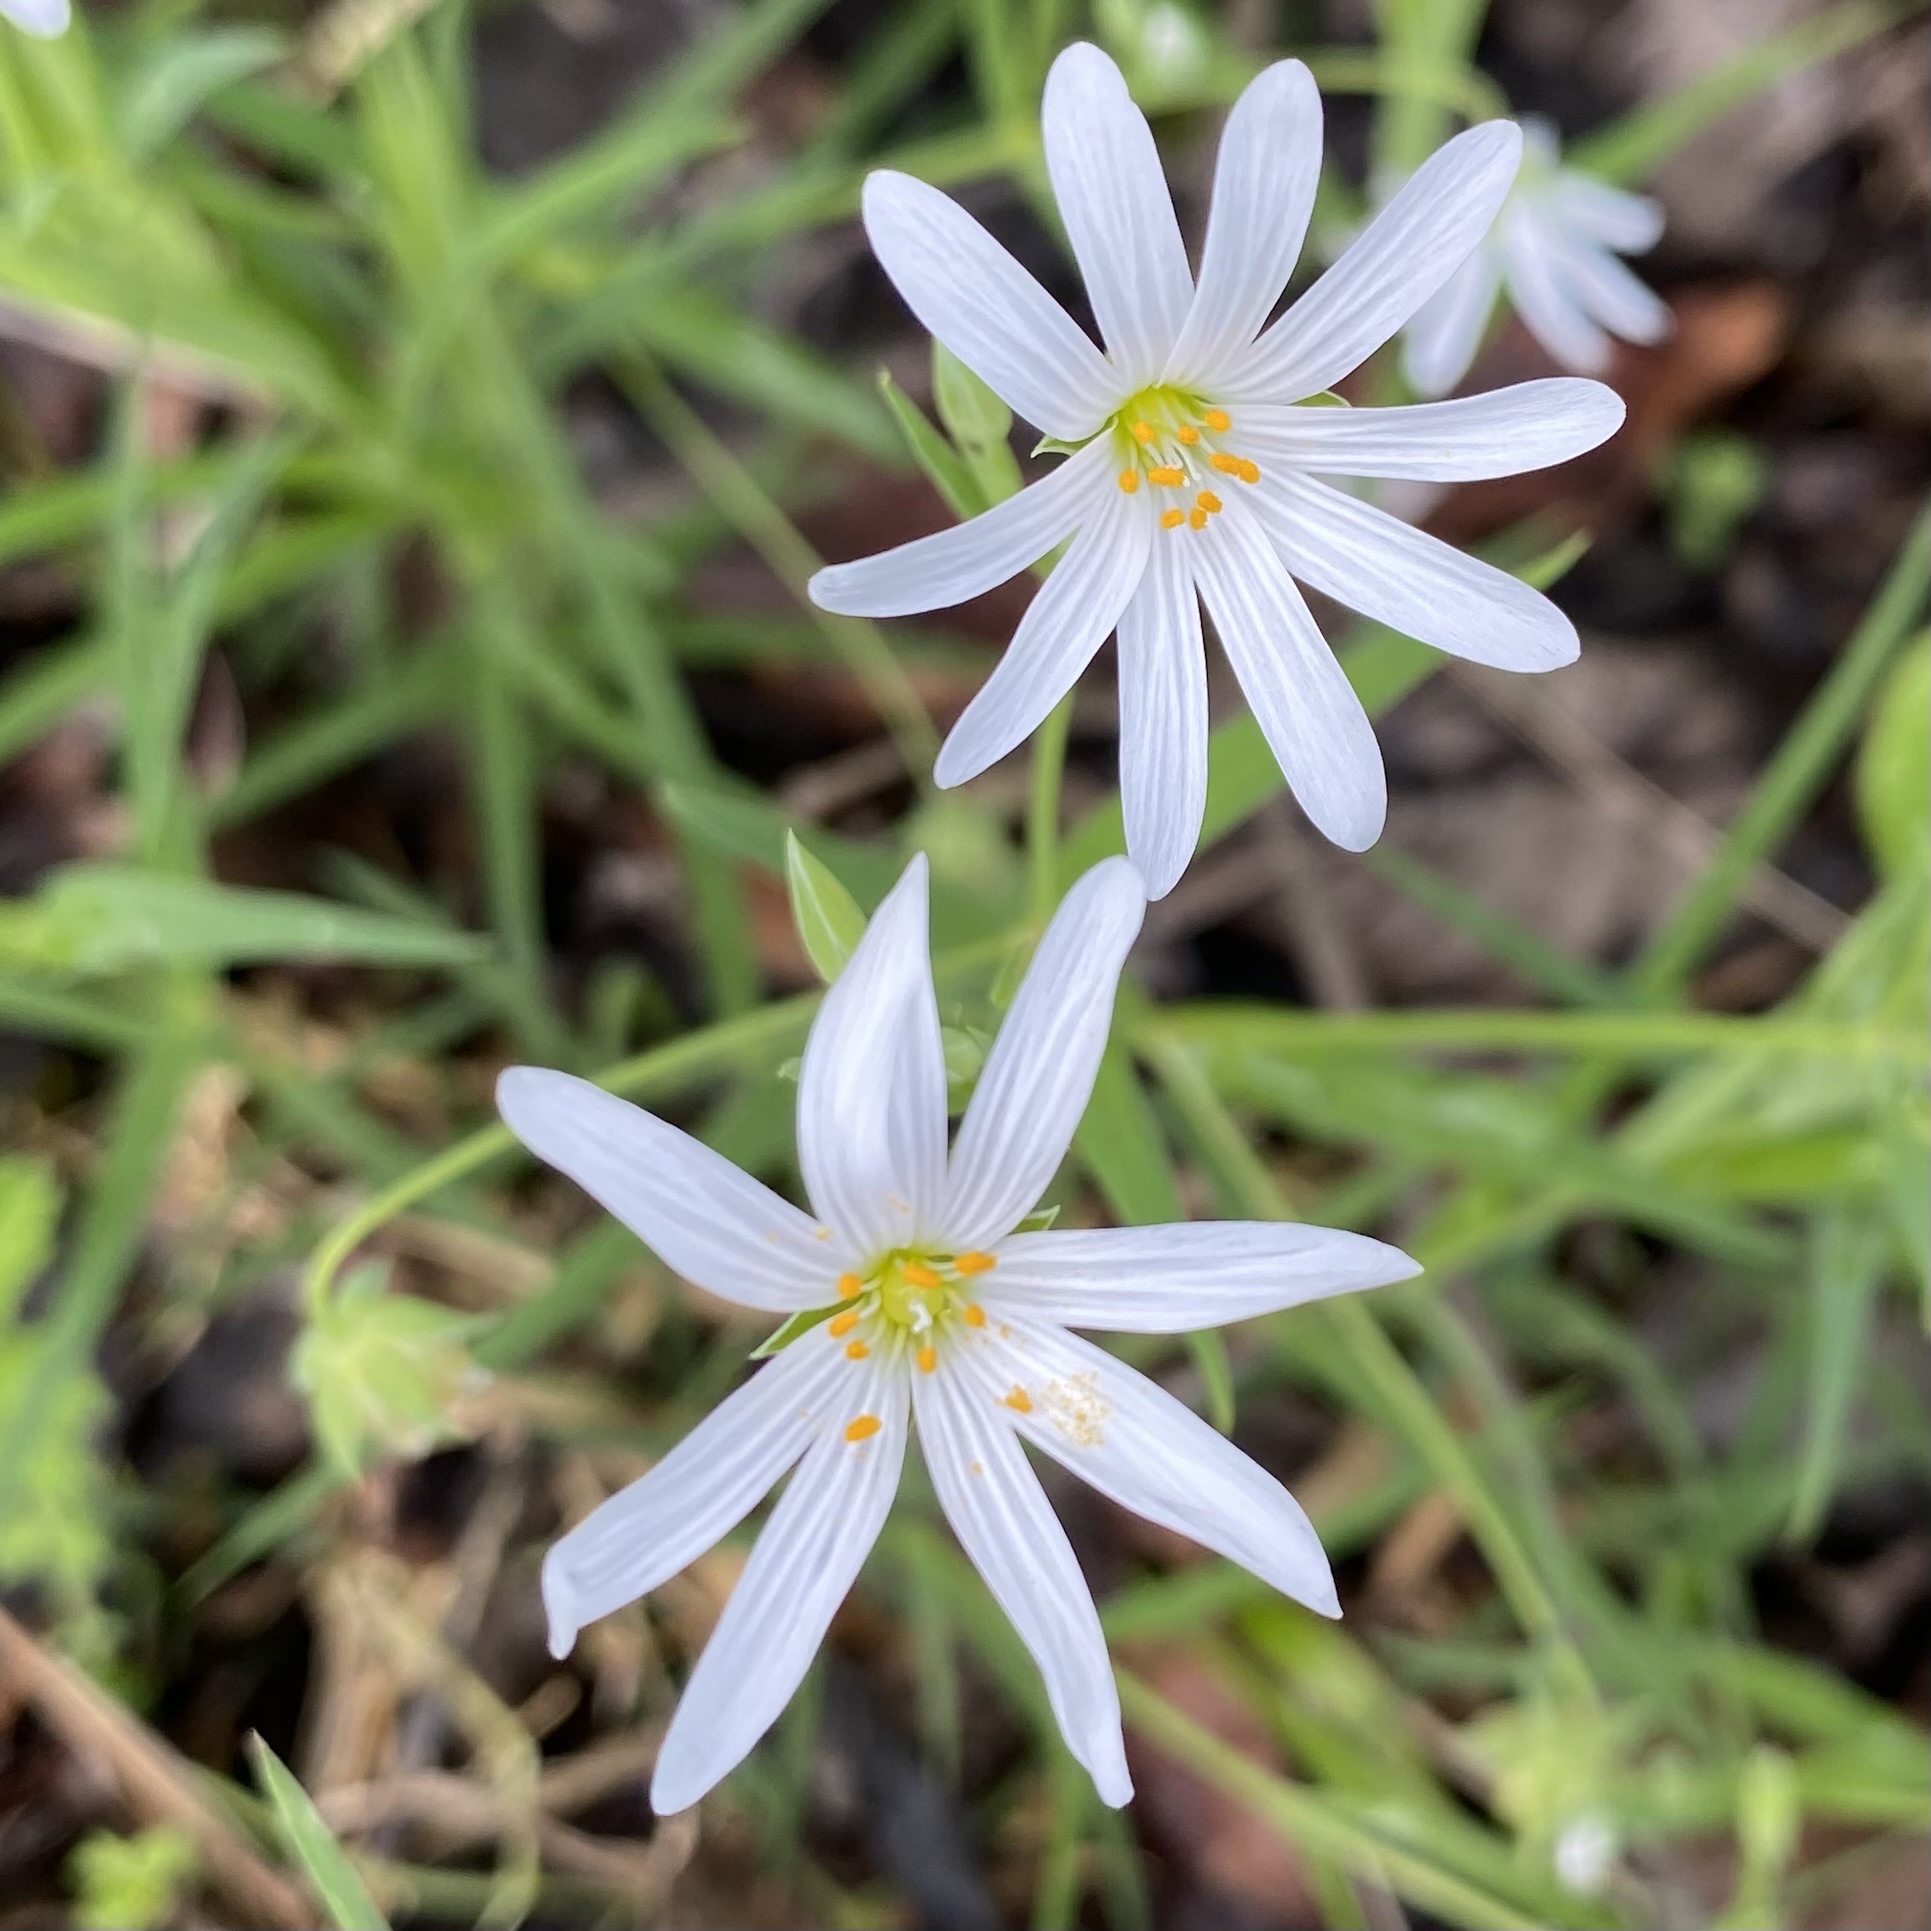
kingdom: Plantae
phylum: Tracheophyta
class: Magnoliopsida
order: Caryophyllales
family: Caryophyllaceae
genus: Rabelera
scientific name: Rabelera holostea
